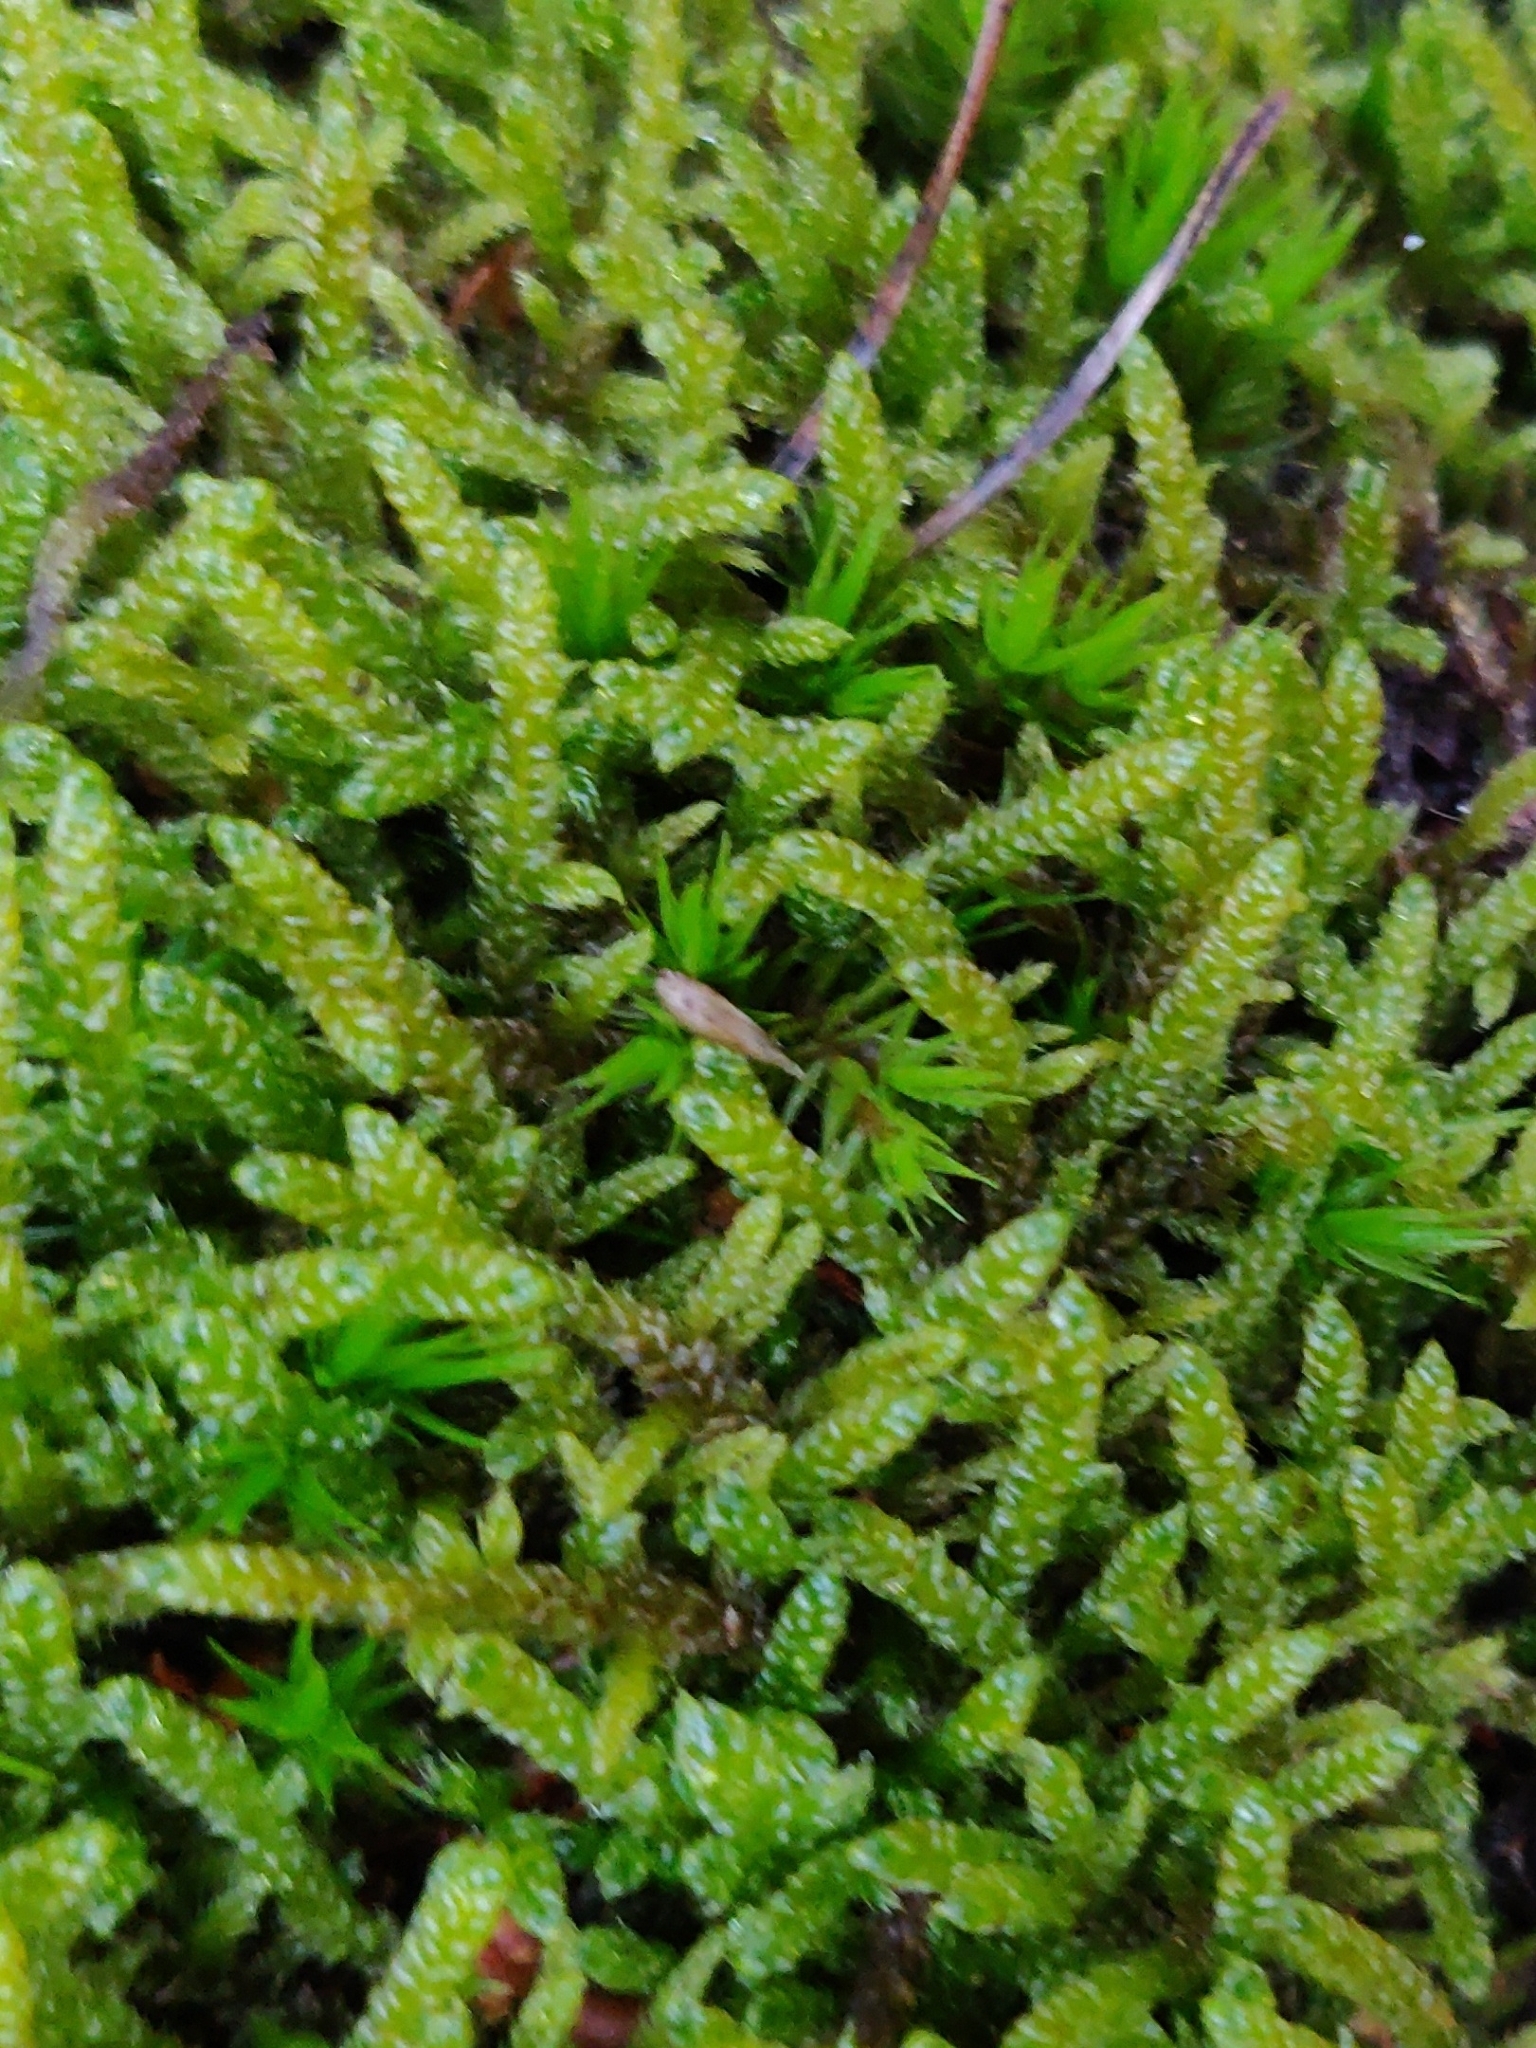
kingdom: Plantae
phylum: Bryophyta
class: Bryopsida
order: Hypnales
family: Hypnaceae
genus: Hypnum
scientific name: Hypnum cupressiforme
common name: Cypress-leaved plait-moss
